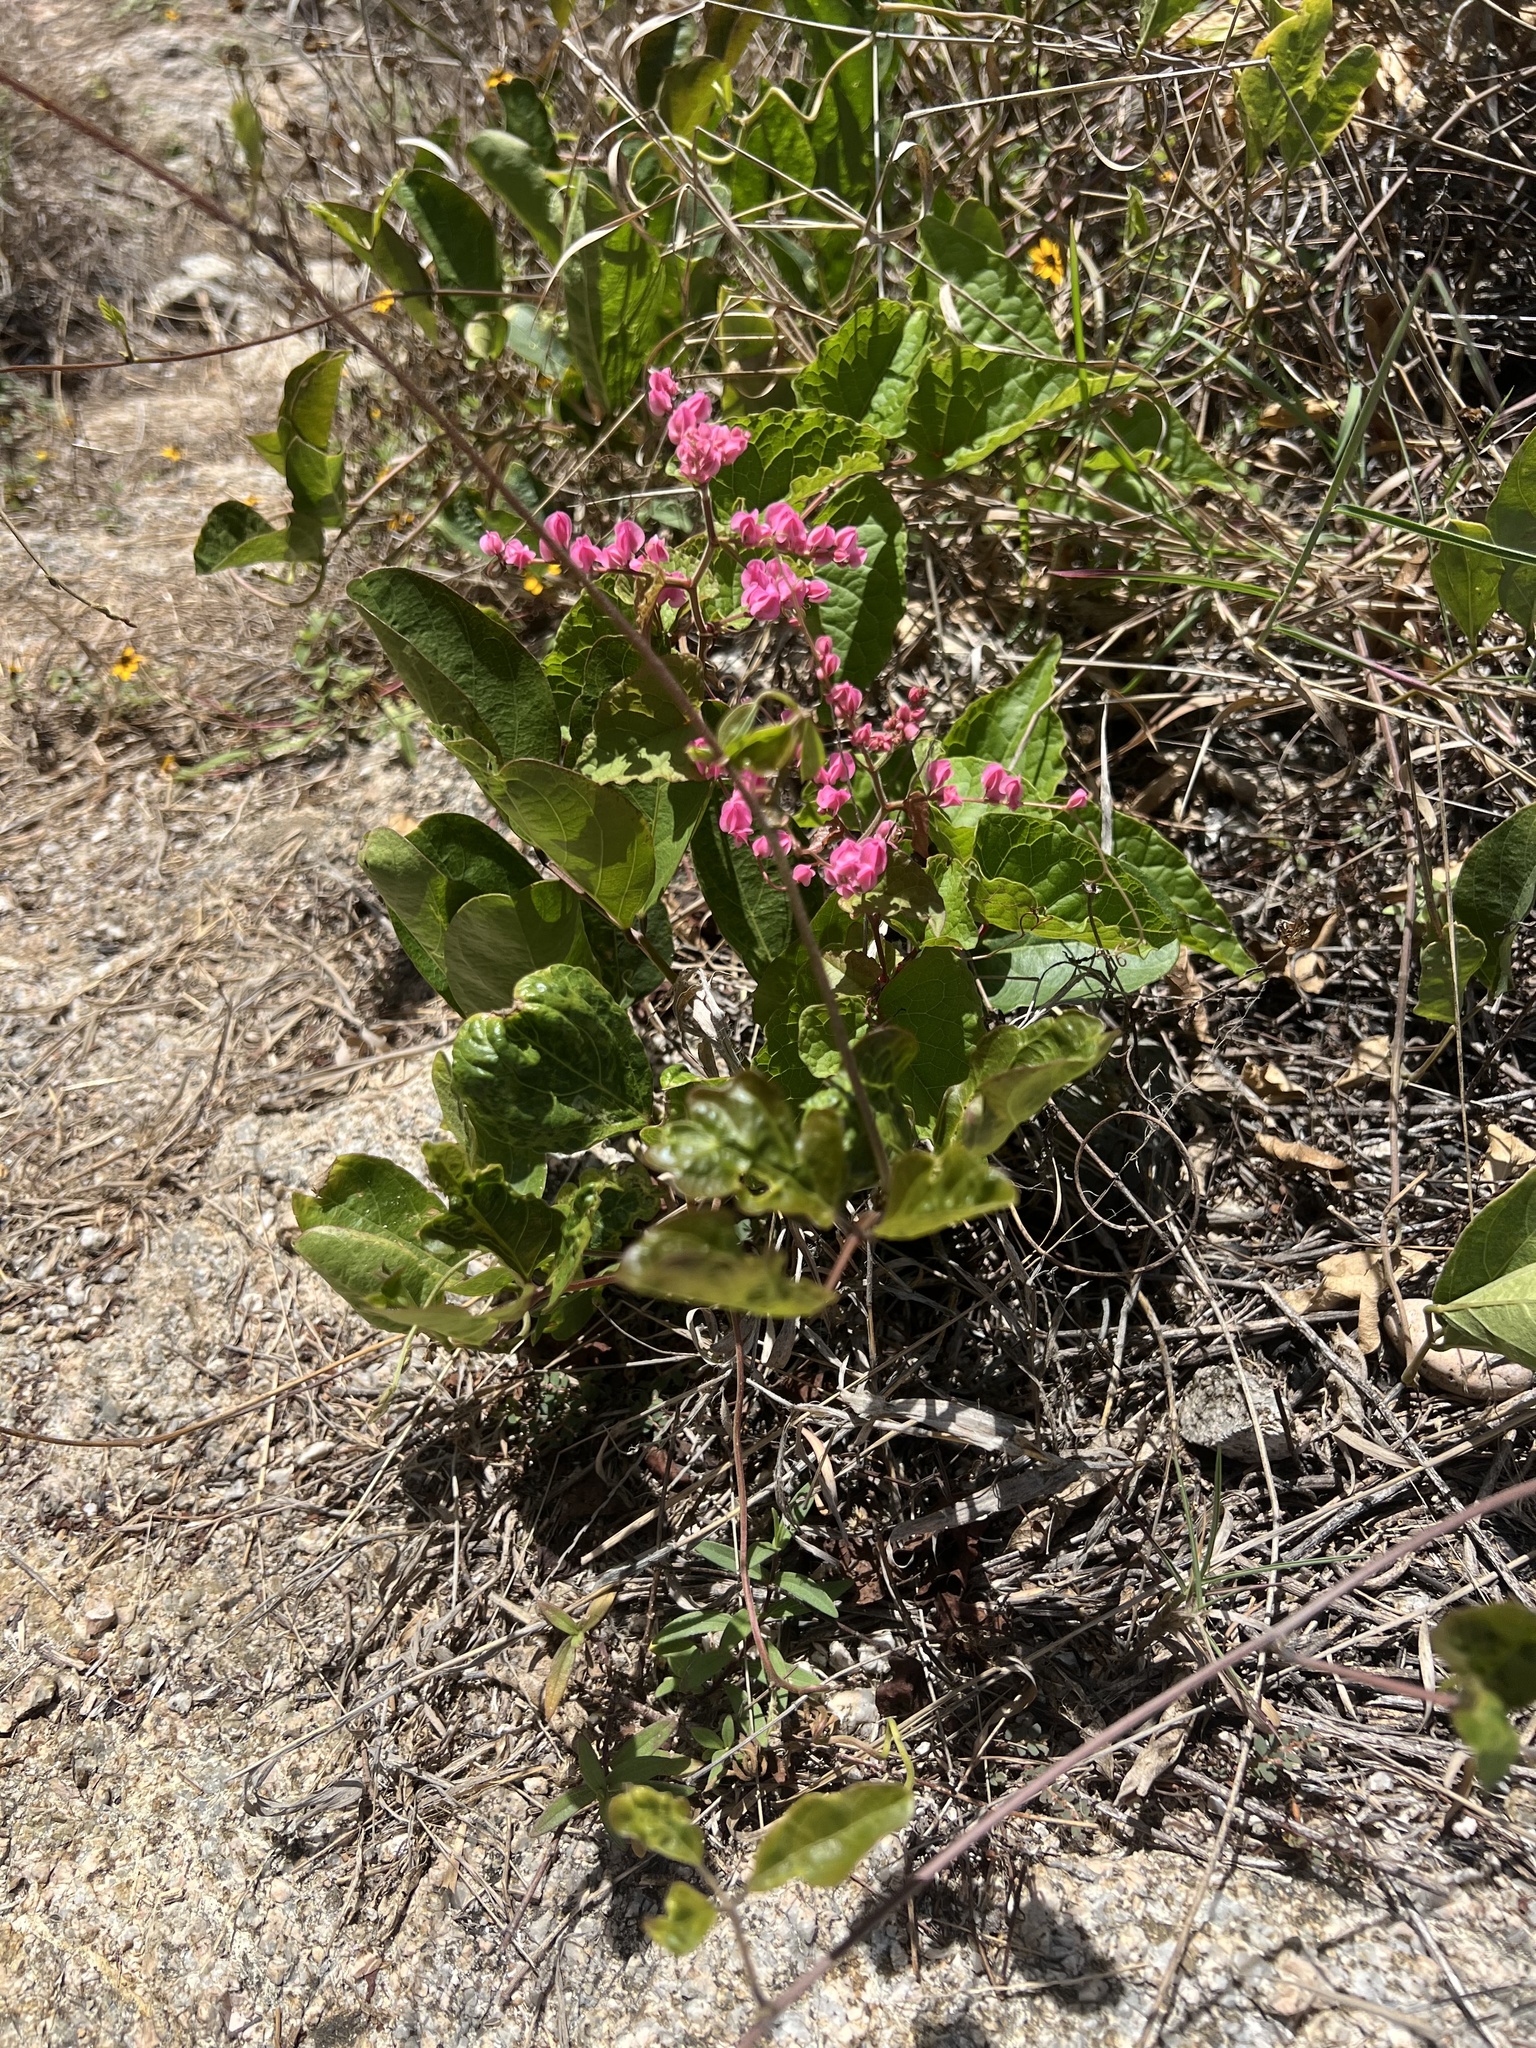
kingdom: Plantae
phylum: Tracheophyta
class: Magnoliopsida
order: Caryophyllales
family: Polygonaceae
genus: Antigonon
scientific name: Antigonon leptopus
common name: Coral vine
